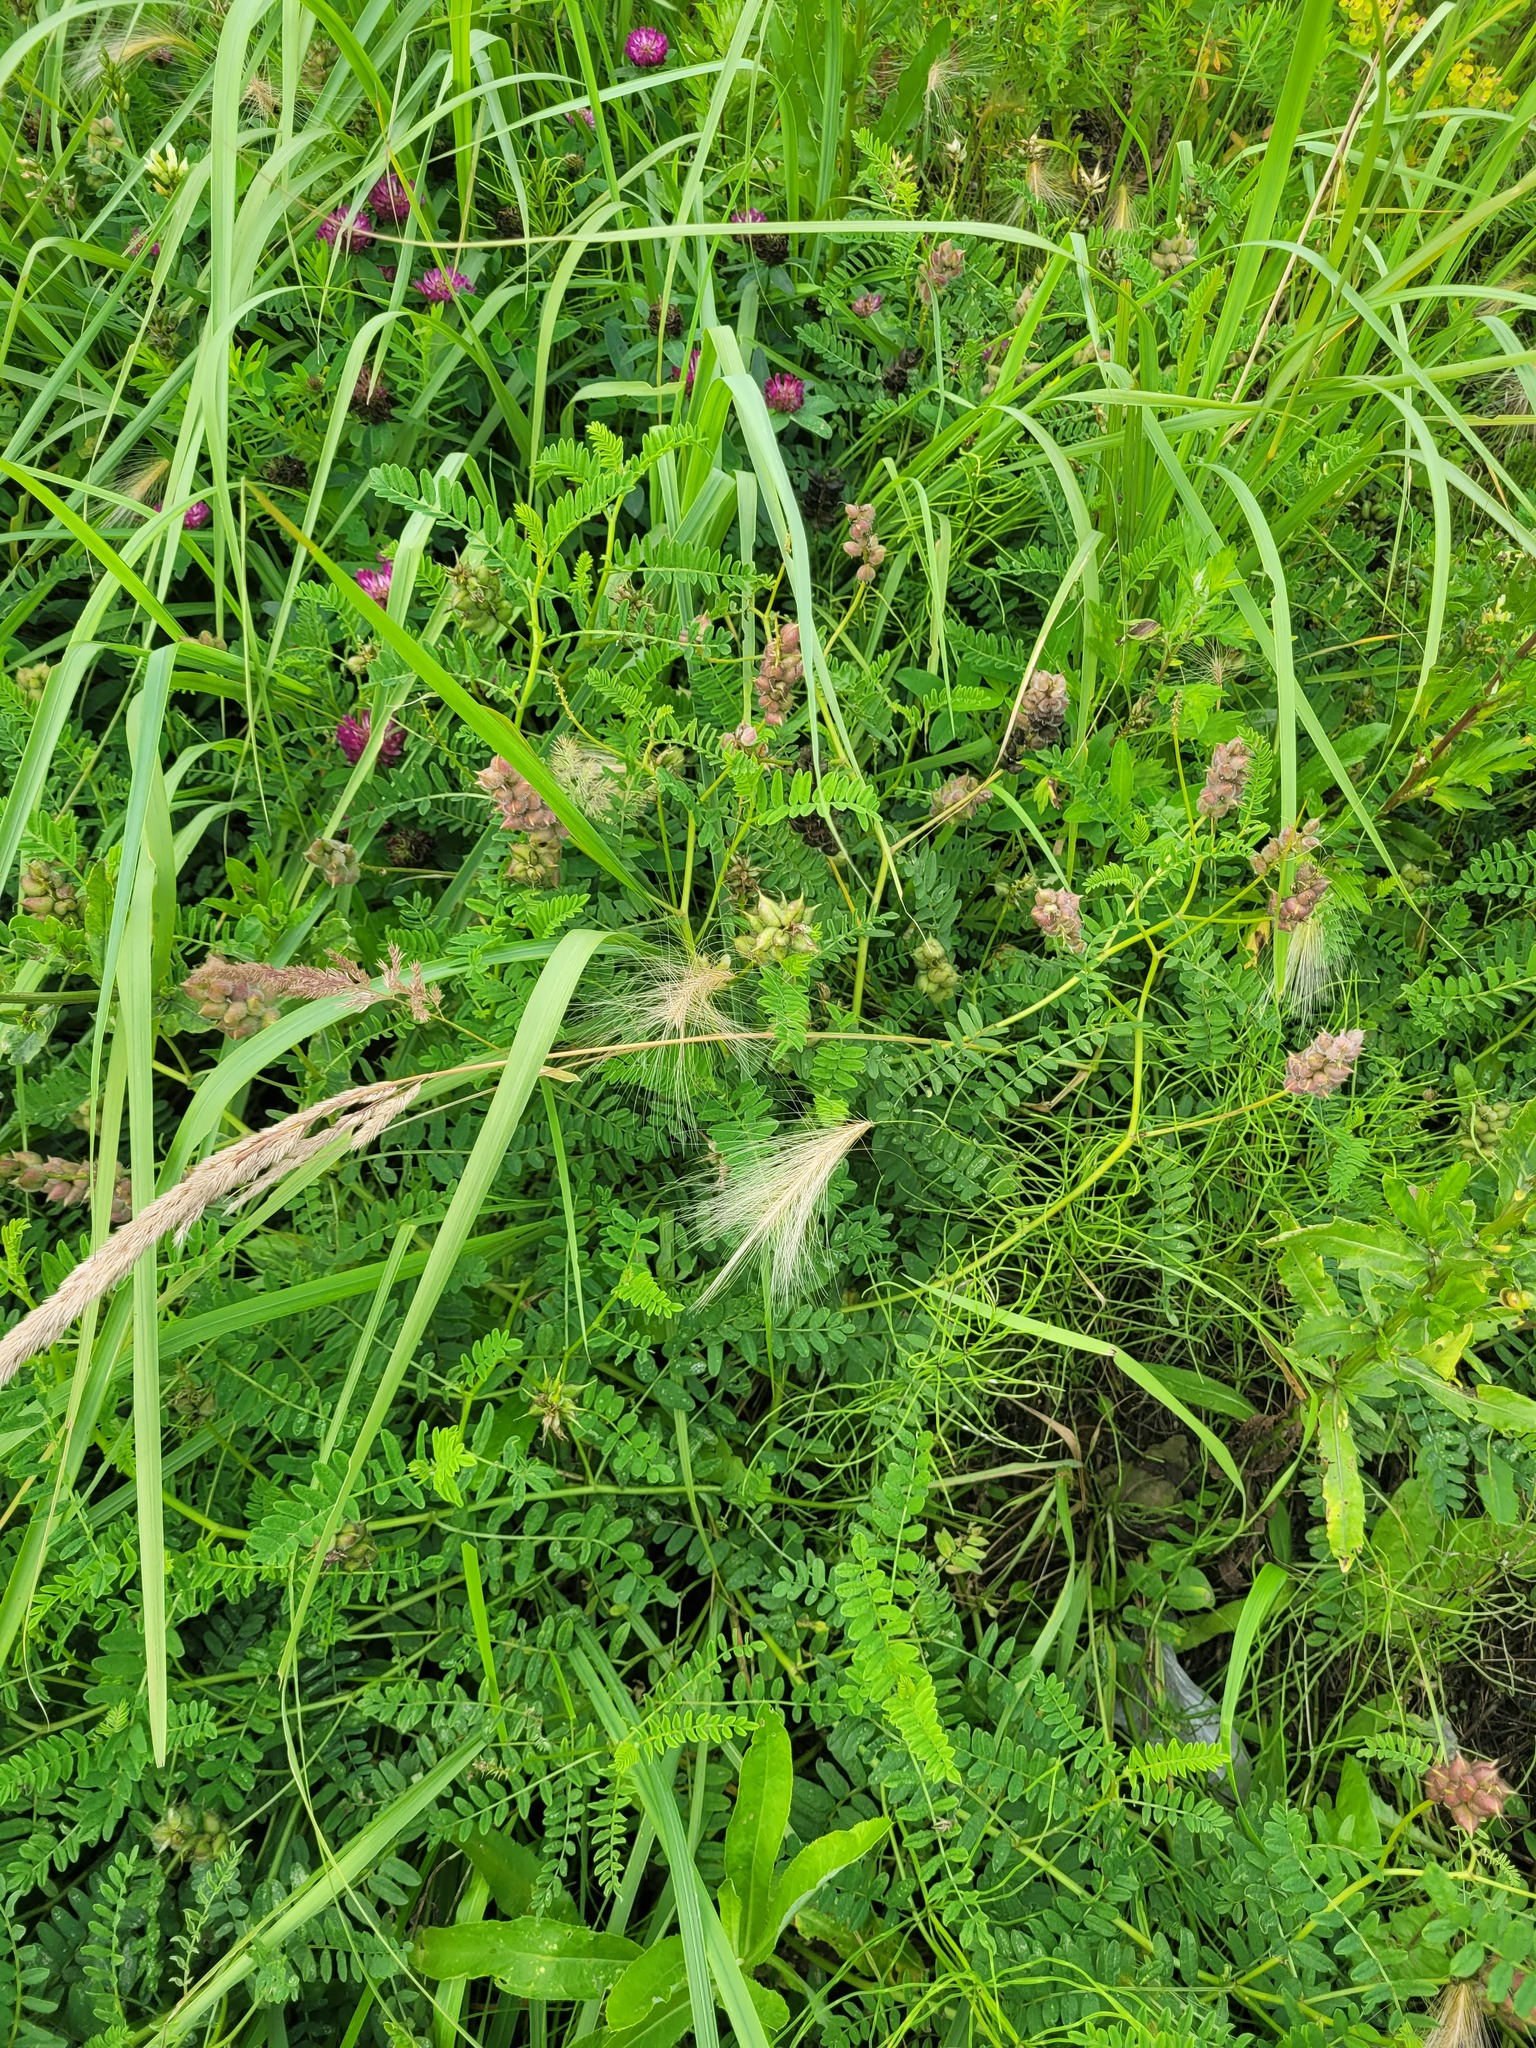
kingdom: Plantae
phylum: Tracheophyta
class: Liliopsida
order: Poales
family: Poaceae
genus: Hordeum
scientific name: Hordeum jubatum
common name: Foxtail barley
